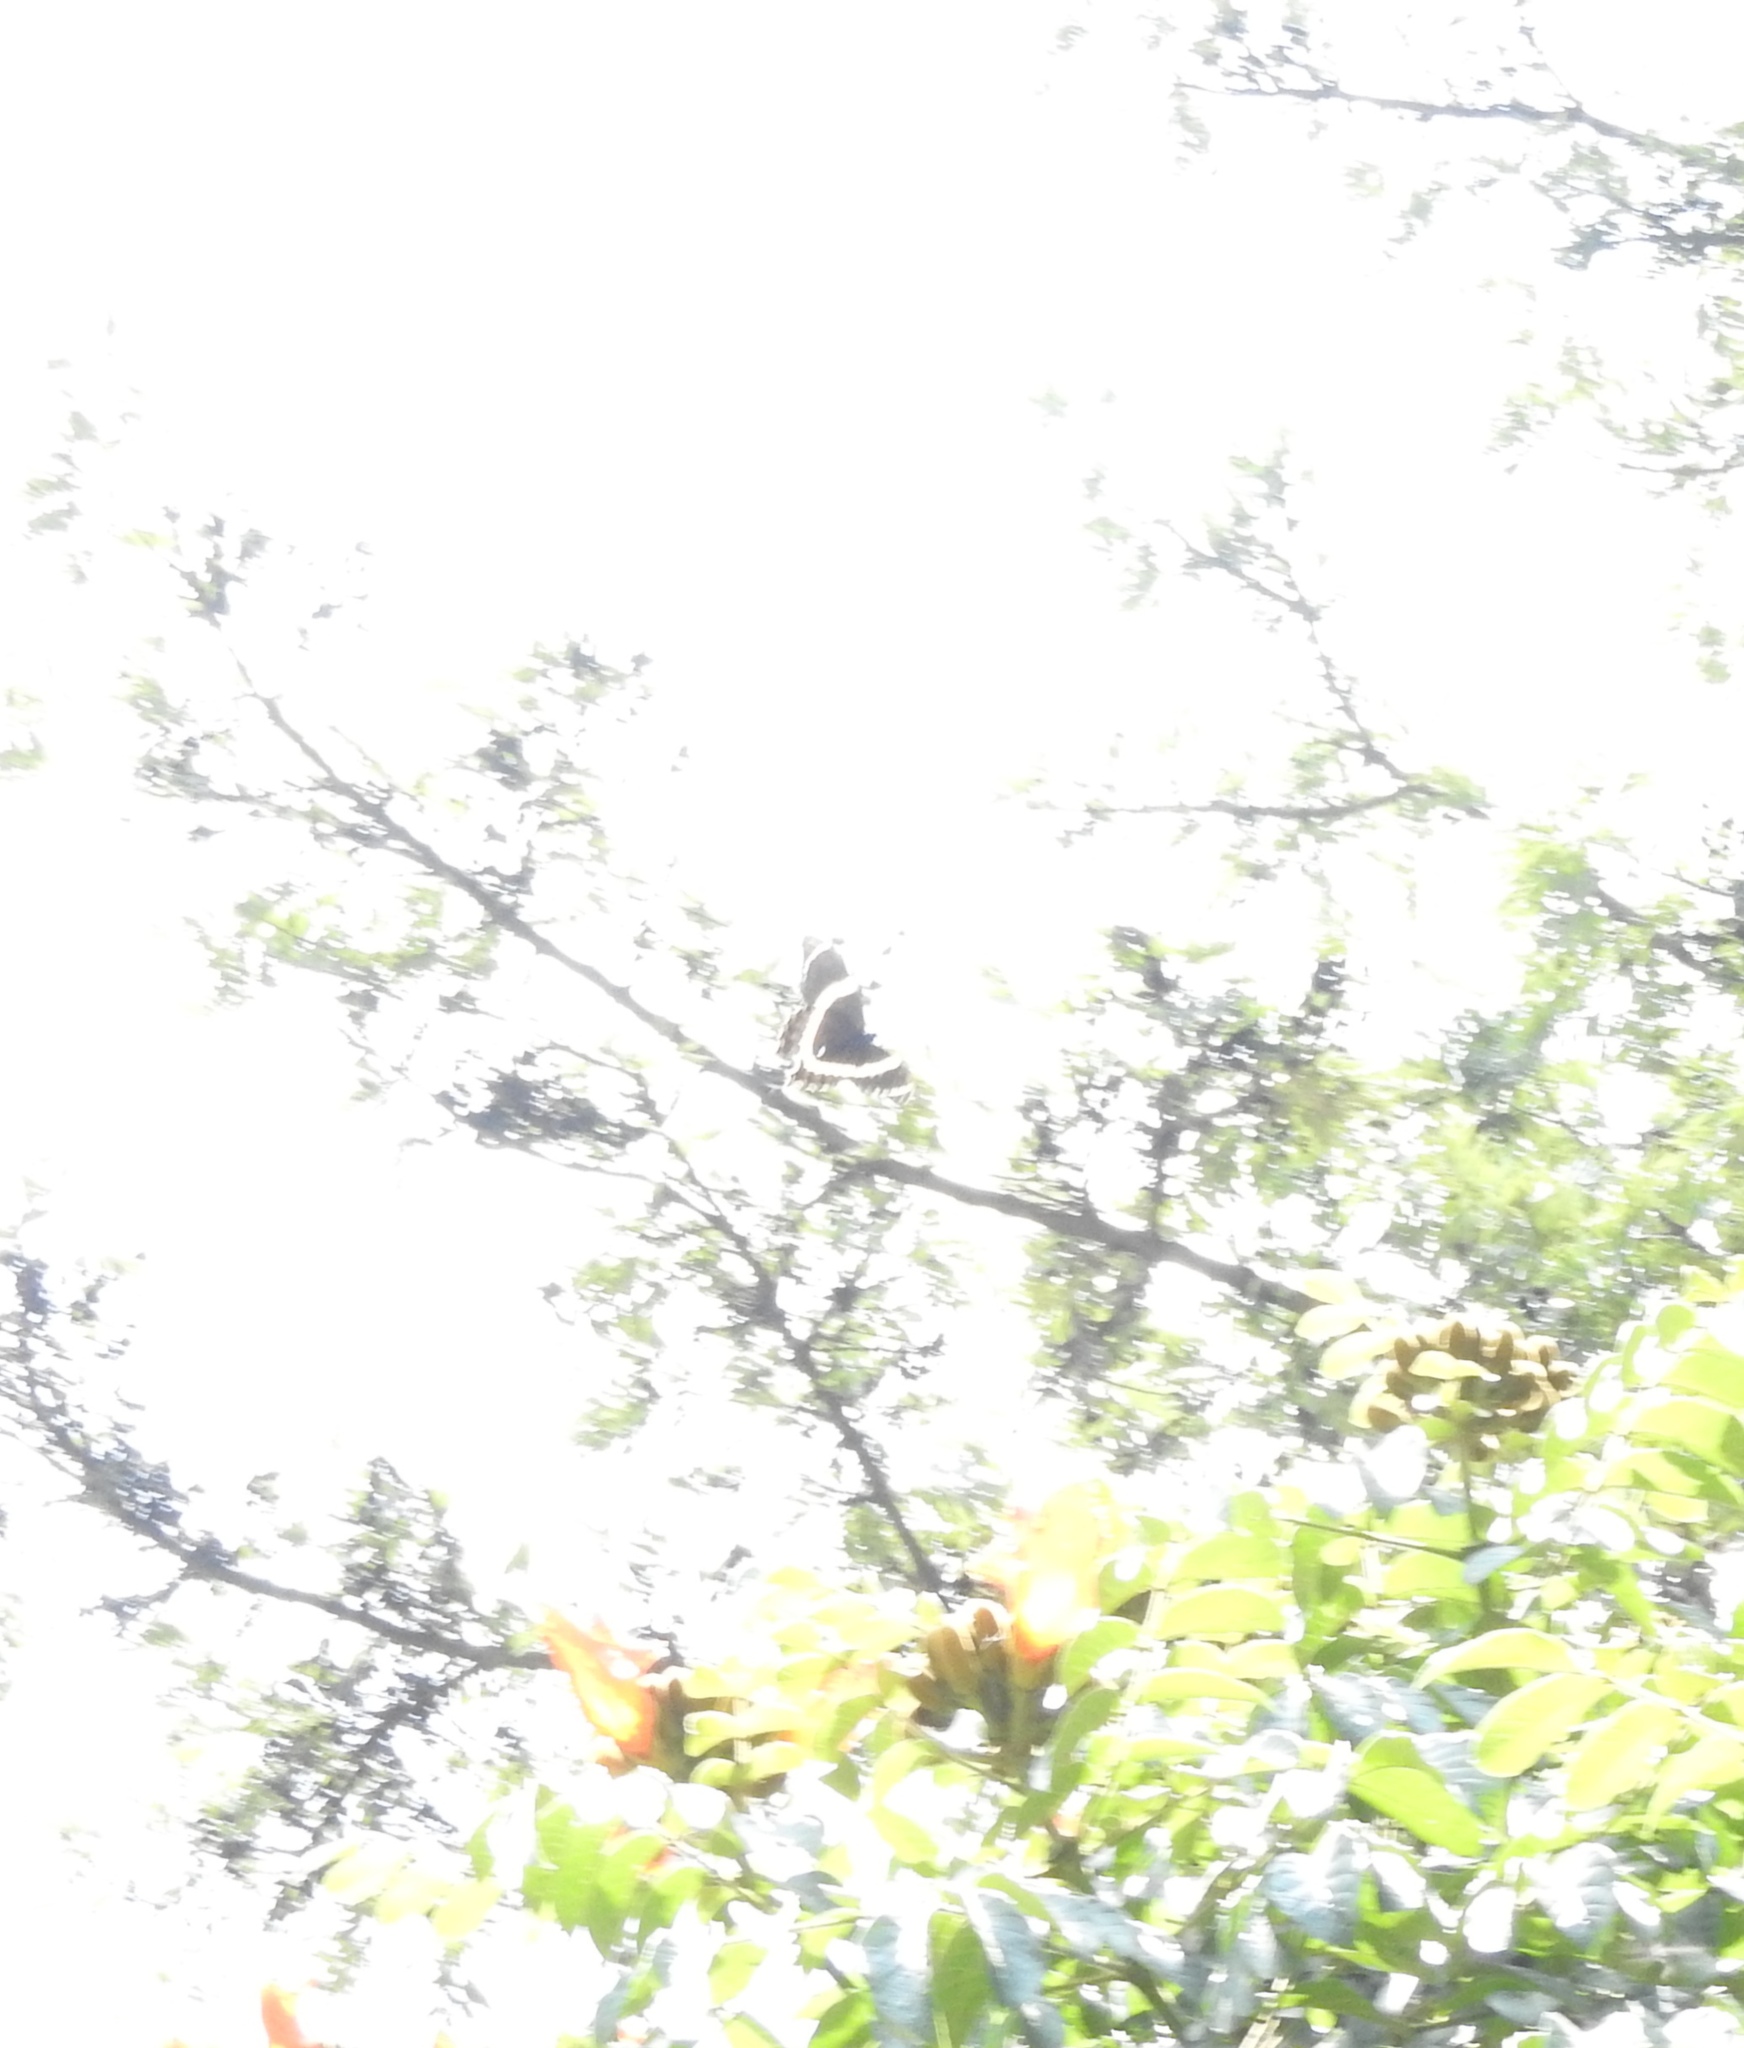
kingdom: Animalia
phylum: Arthropoda
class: Insecta
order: Lepidoptera
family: Papilionidae
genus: Papilio
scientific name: Papilio garamas
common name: Magnificent swallowtail
